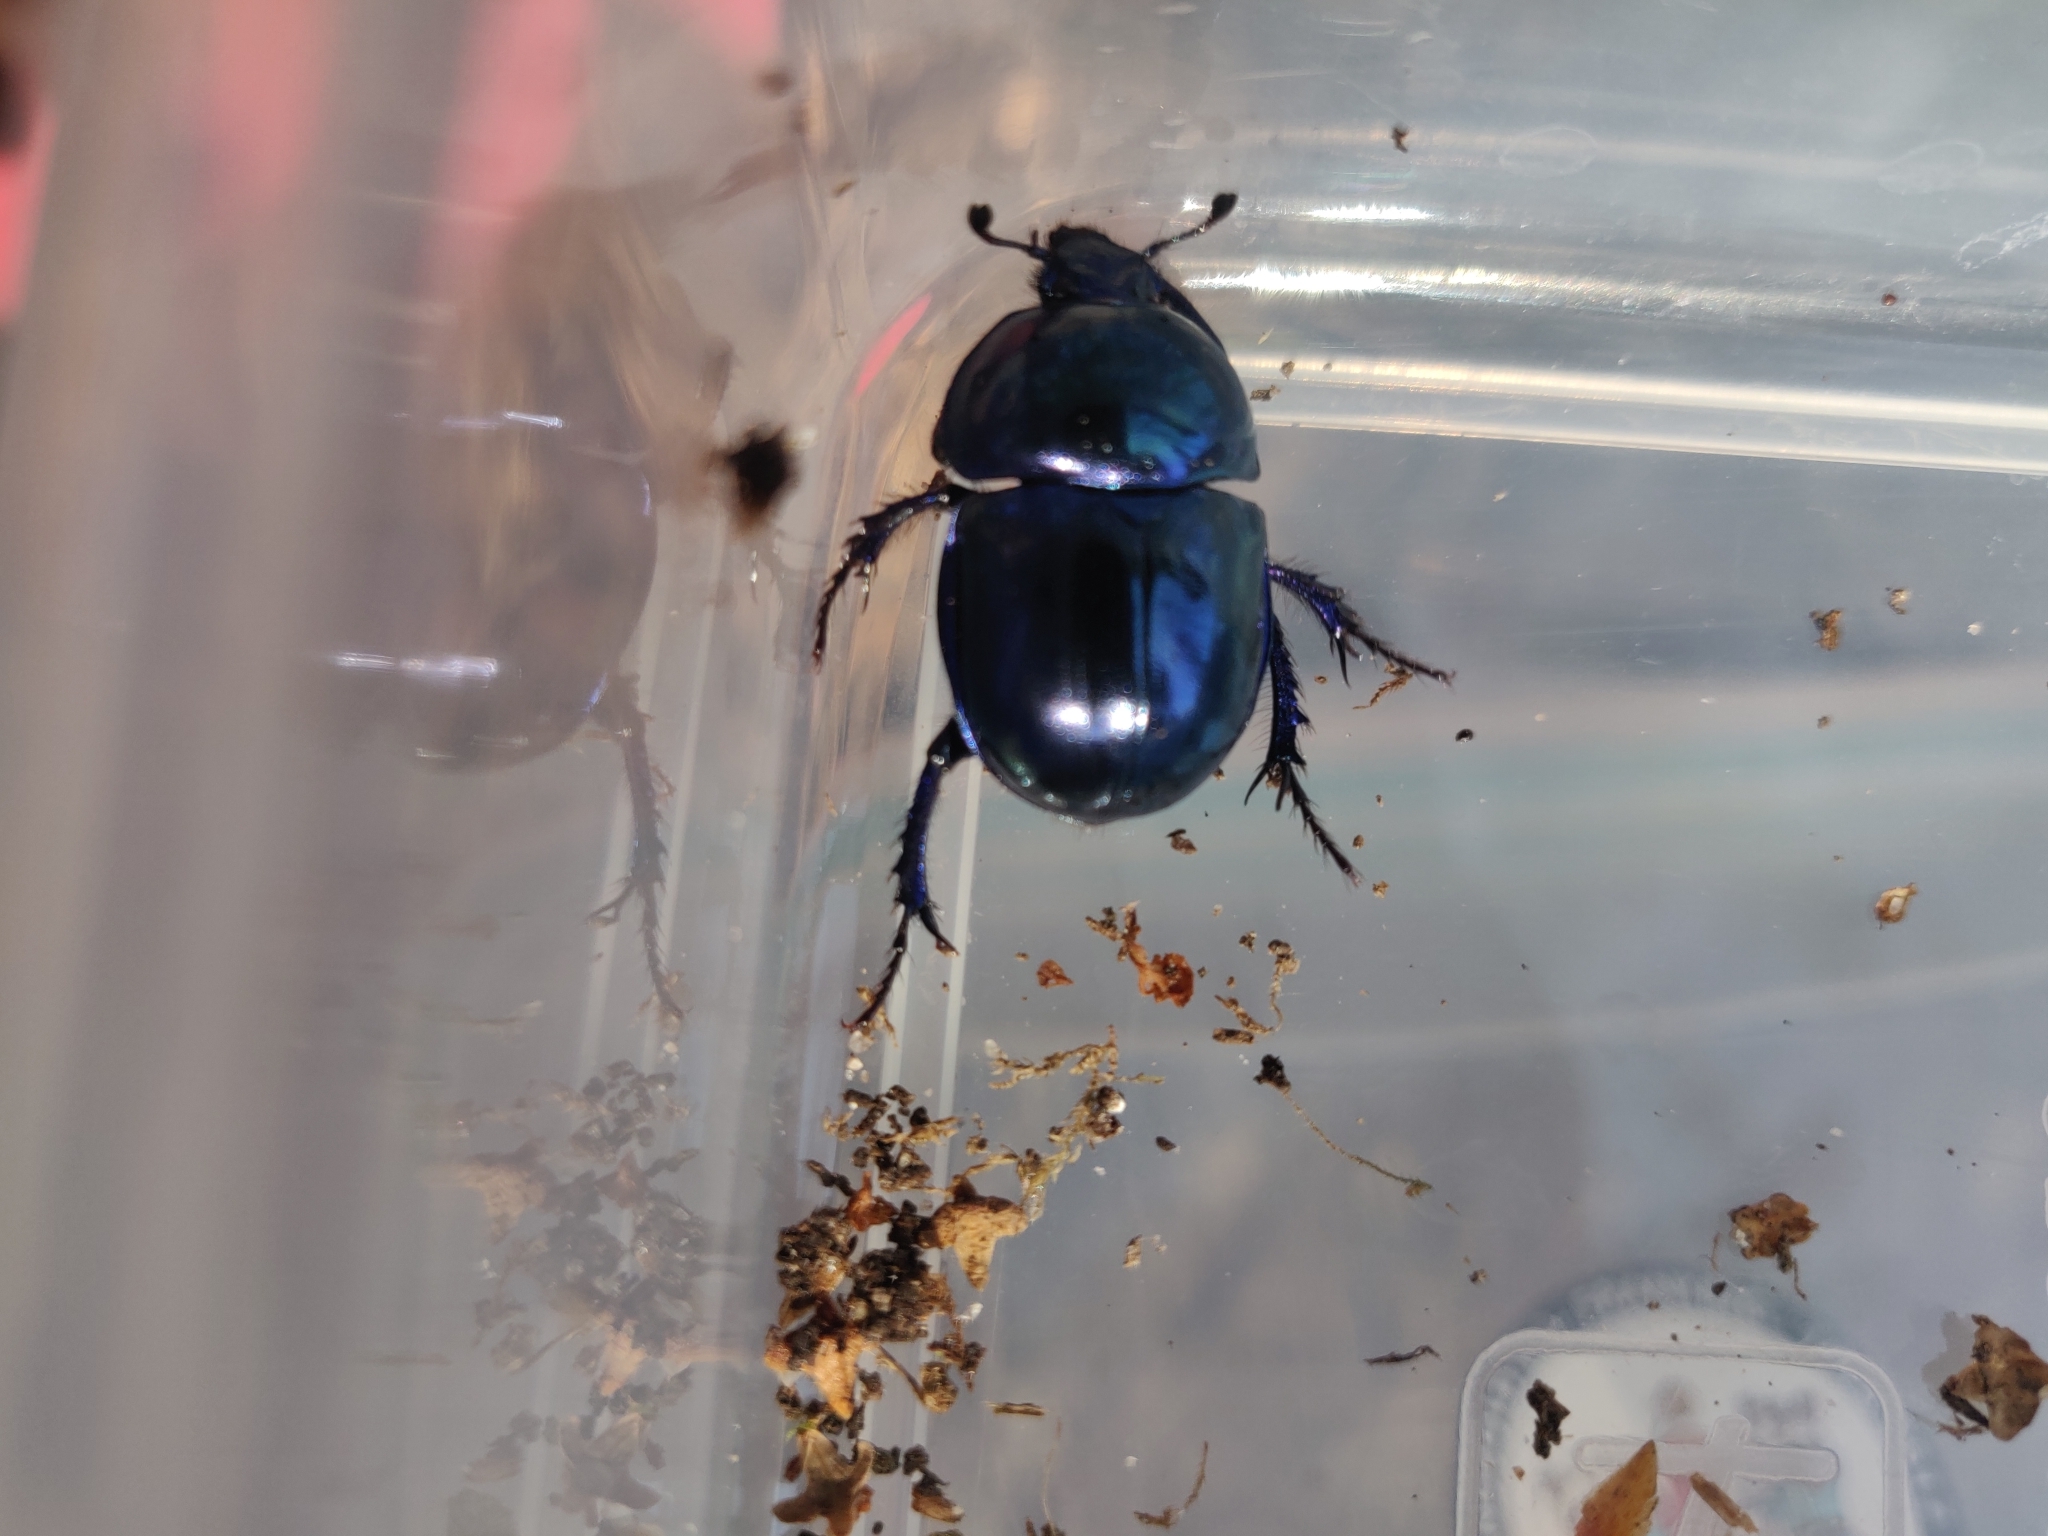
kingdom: Animalia
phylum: Arthropoda
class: Insecta
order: Coleoptera
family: Geotrupidae
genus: Trypocopris
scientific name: Trypocopris vernalis
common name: Spring dumbledor
